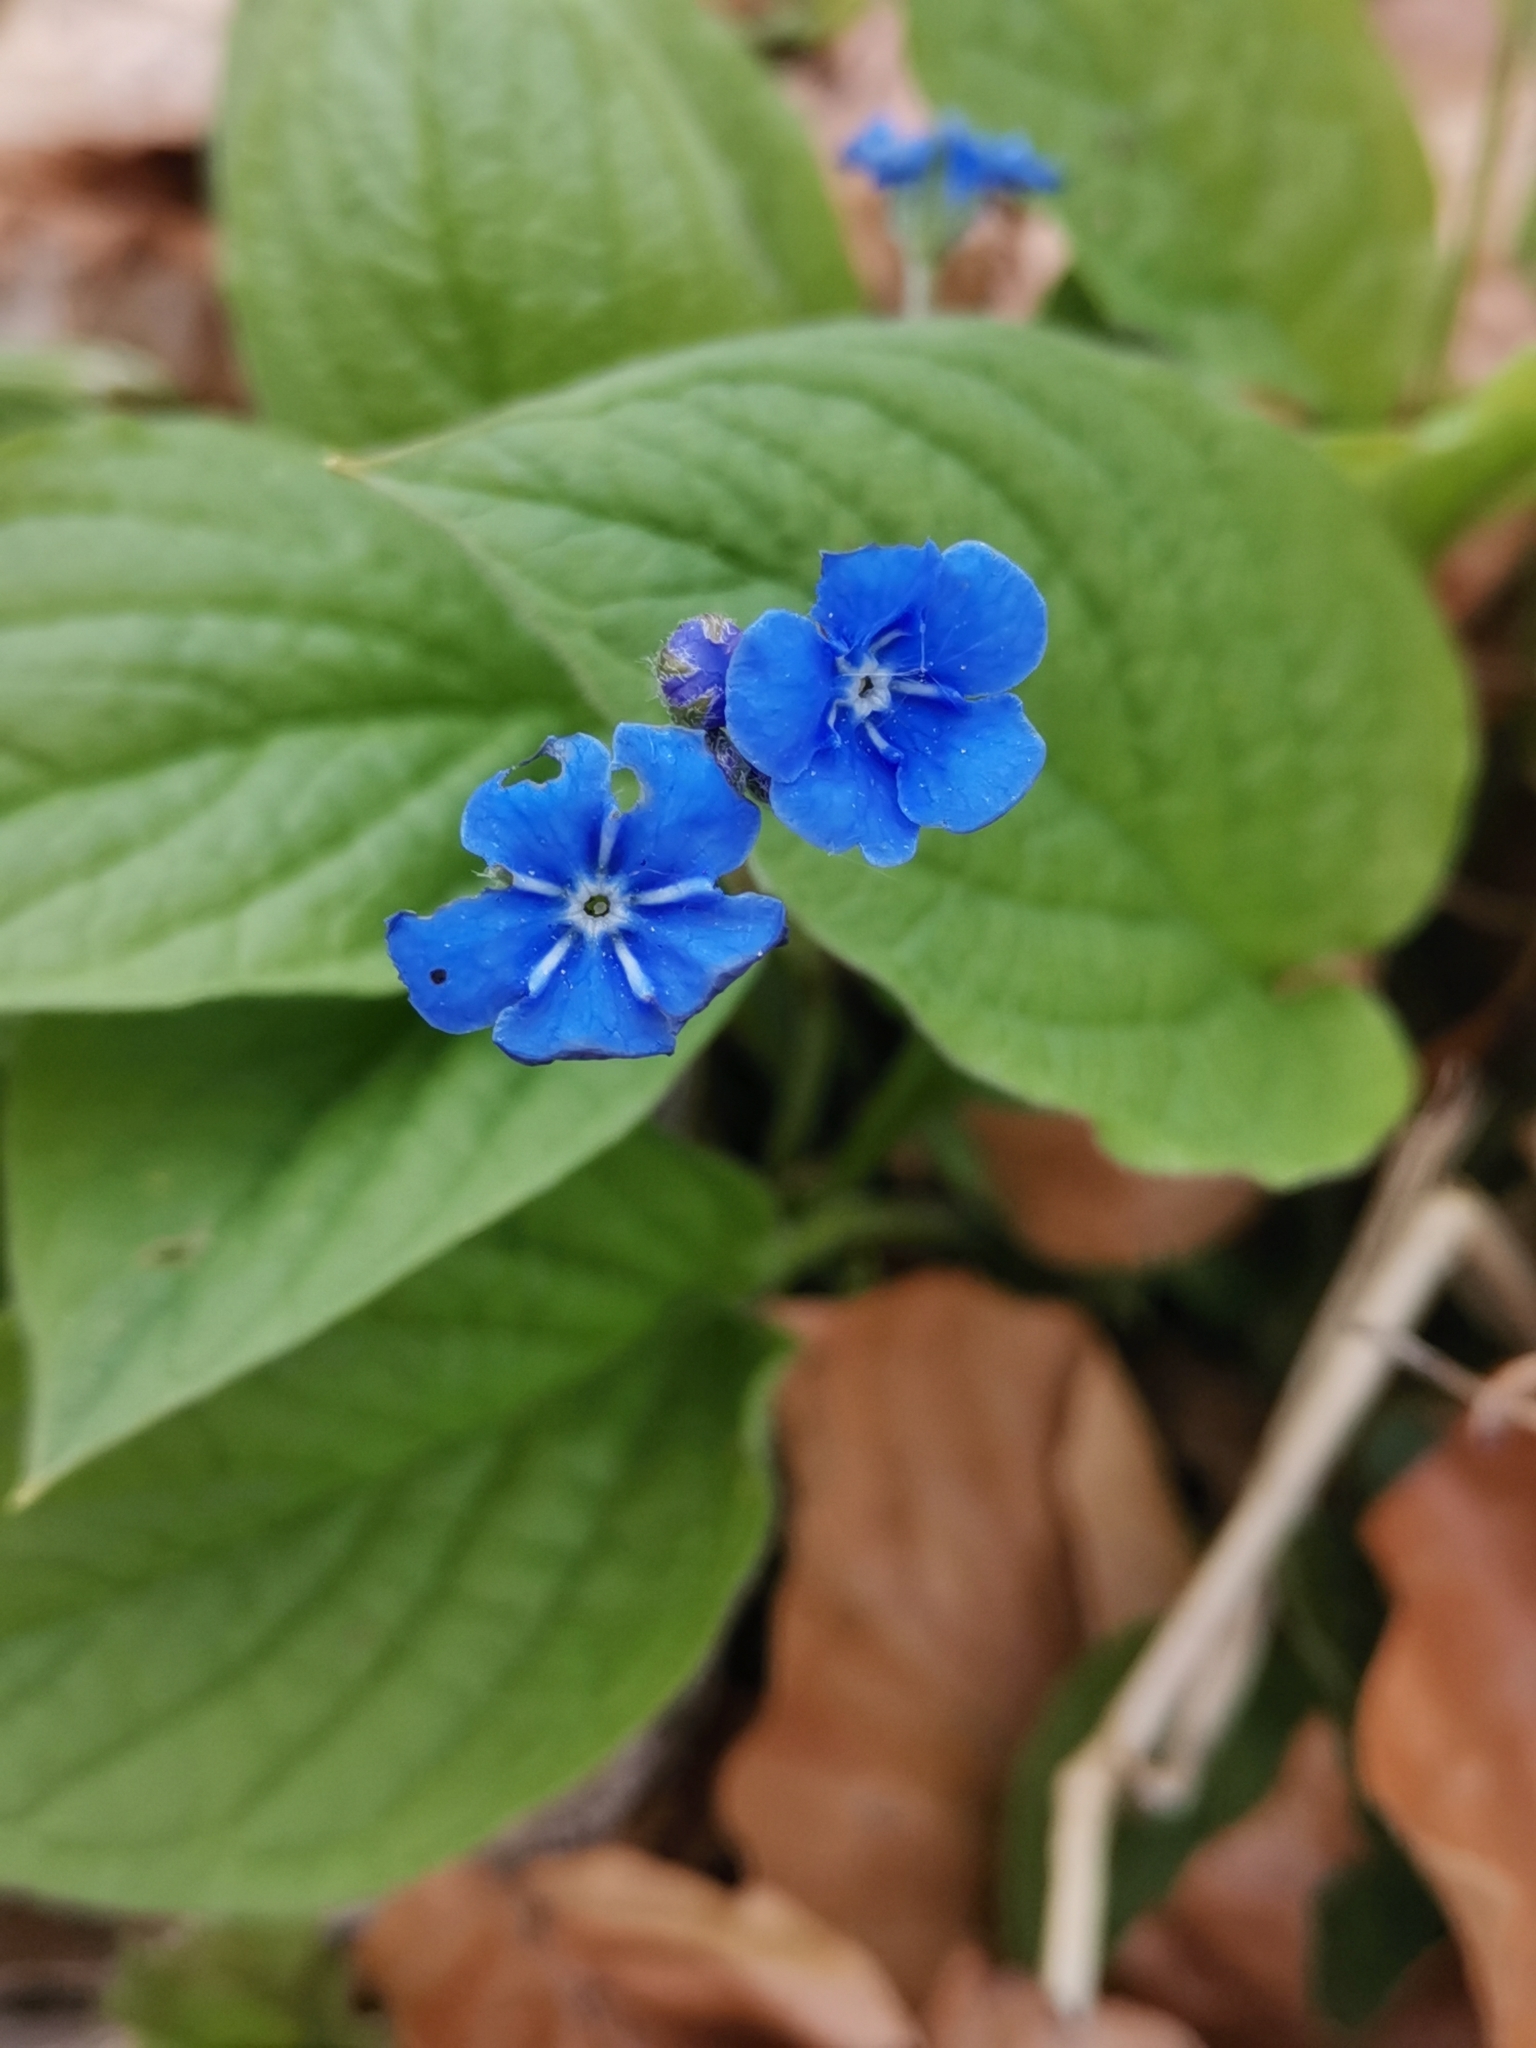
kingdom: Plantae
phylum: Tracheophyta
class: Magnoliopsida
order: Boraginales
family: Boraginaceae
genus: Omphalodes
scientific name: Omphalodes verna
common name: Blue-eyed-mary
